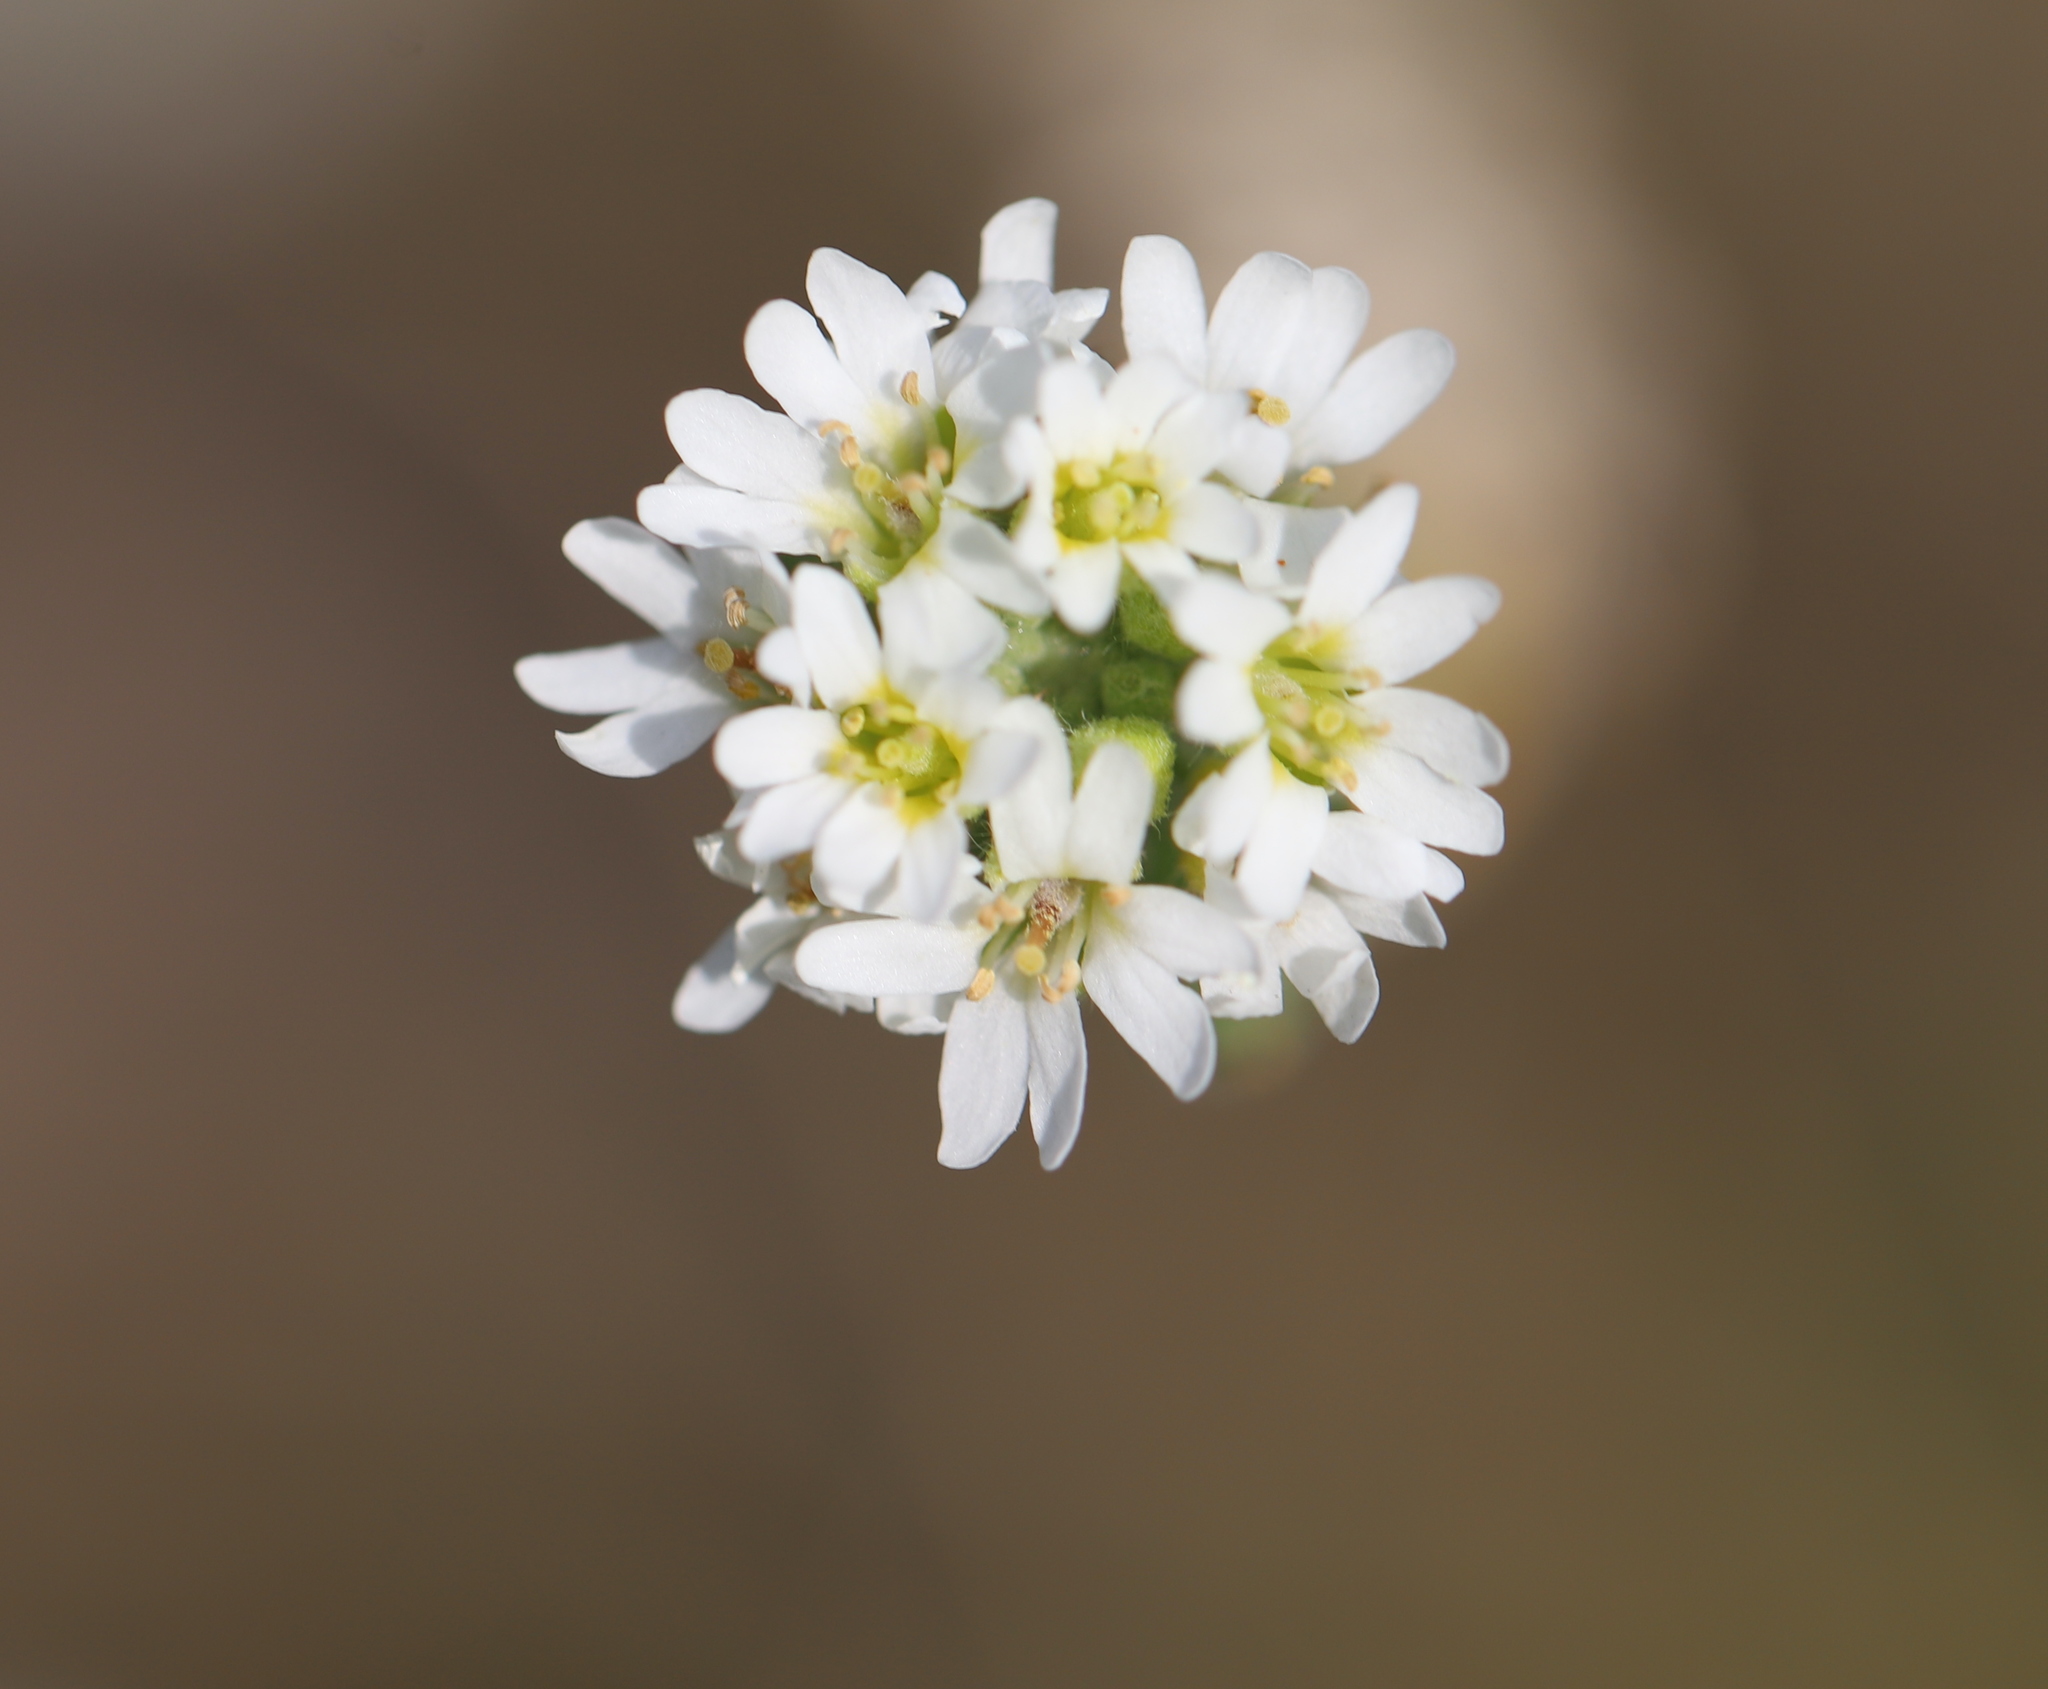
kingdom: Plantae
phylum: Tracheophyta
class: Magnoliopsida
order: Brassicales
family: Brassicaceae
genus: Berteroa
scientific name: Berteroa incana
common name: Hoary alison
